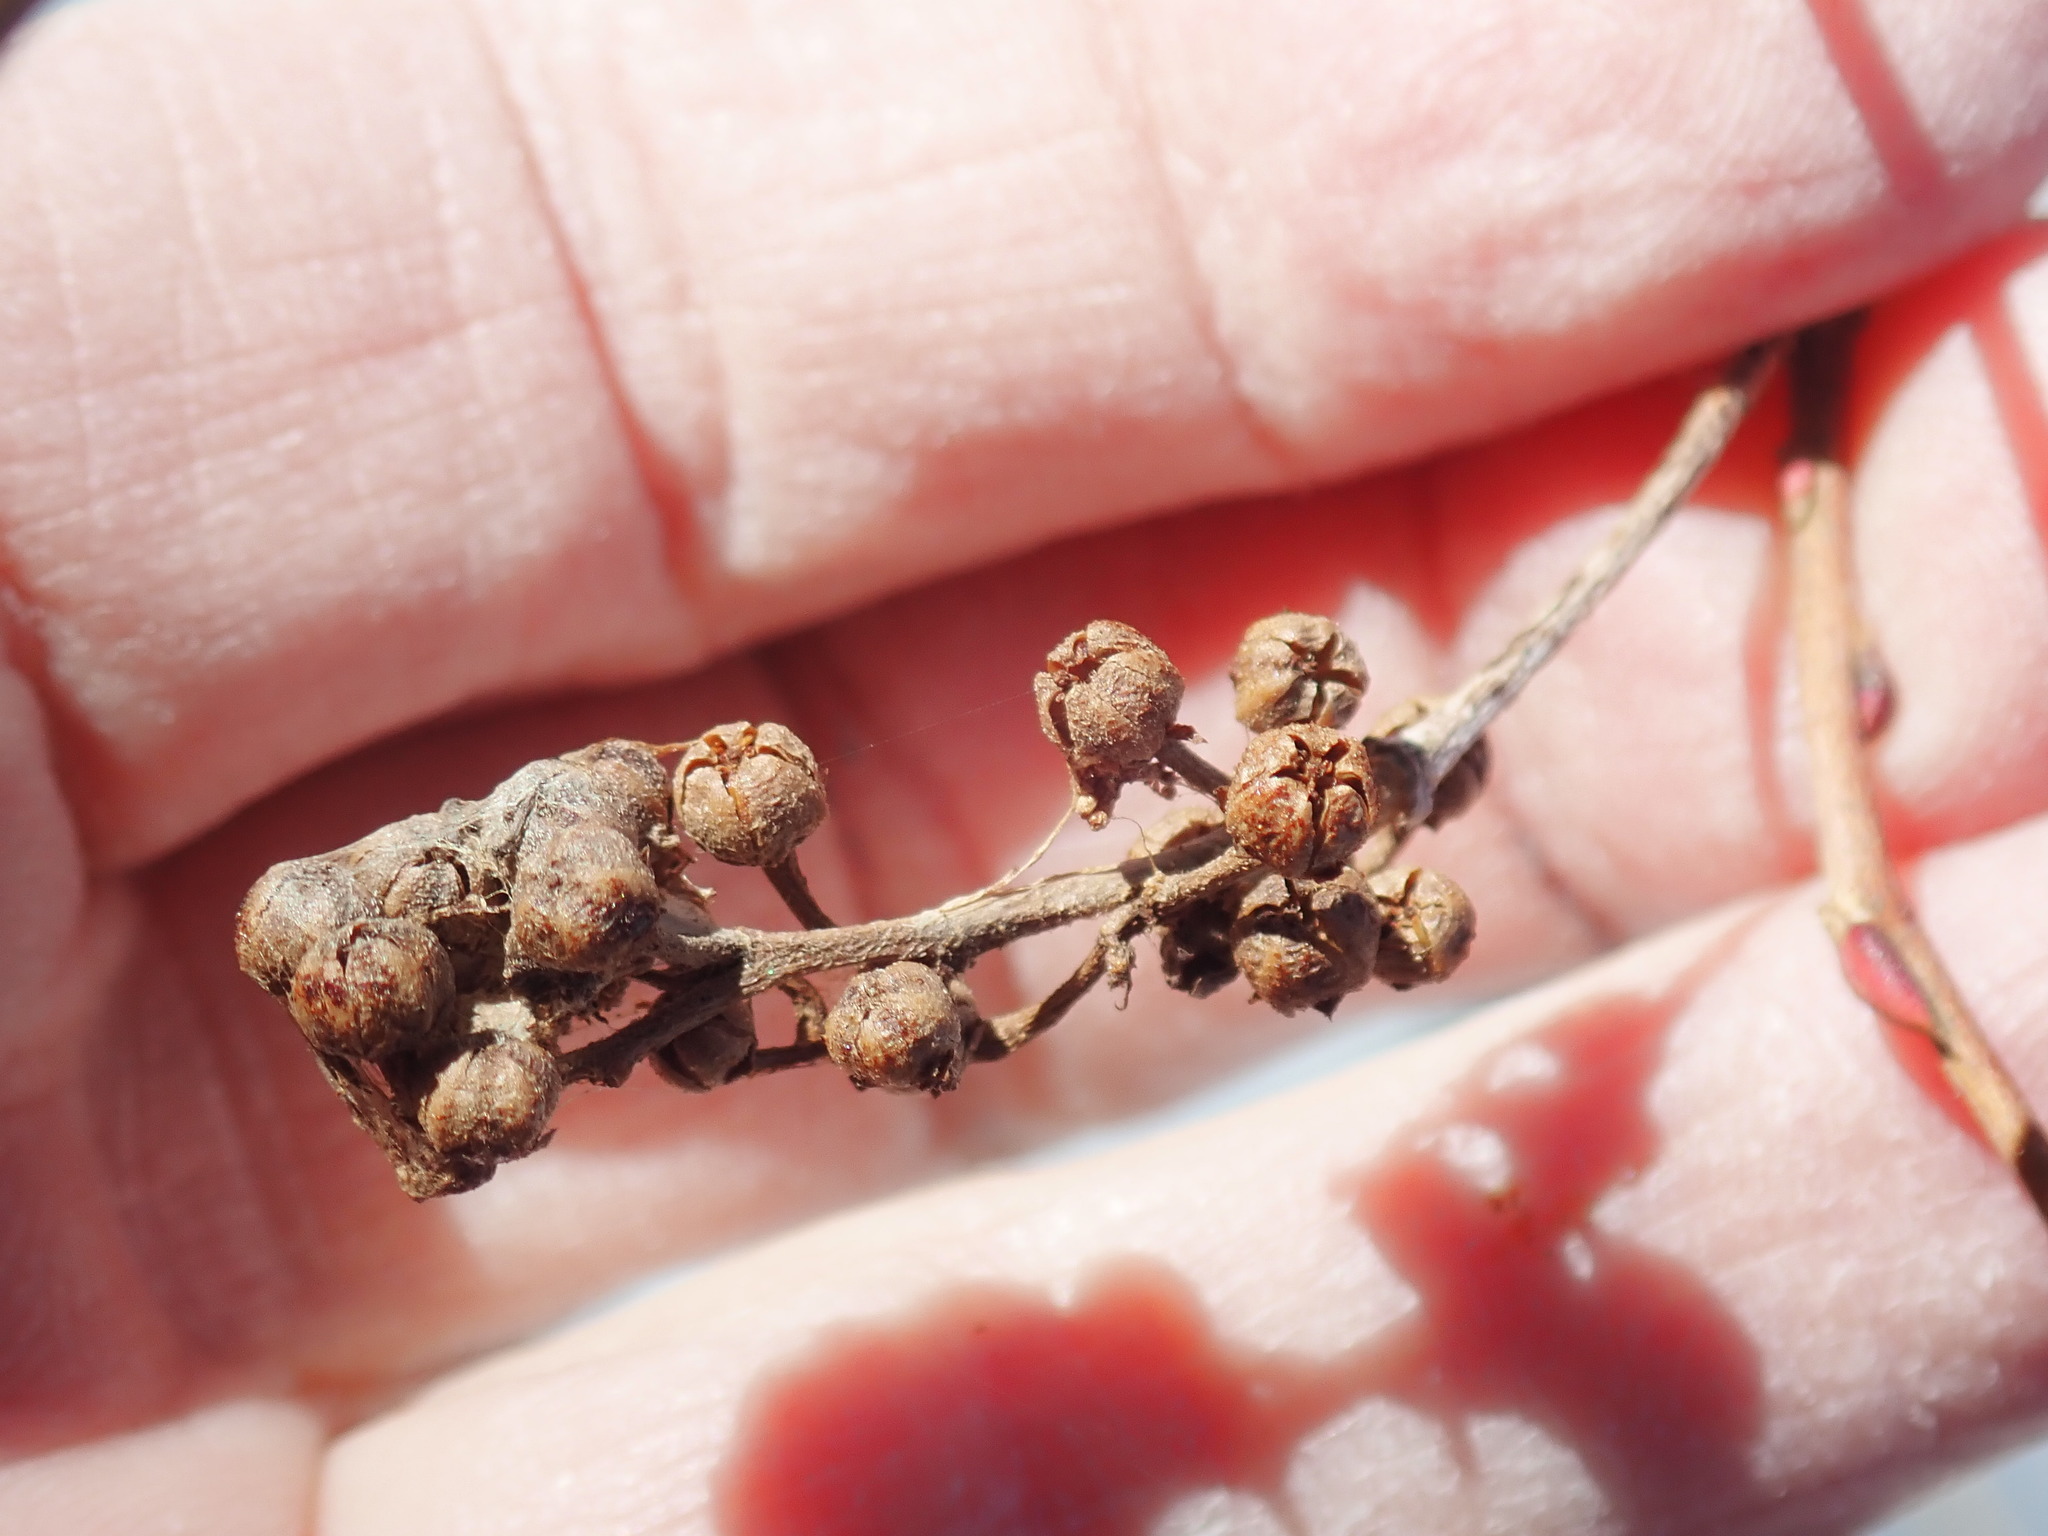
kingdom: Plantae
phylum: Tracheophyta
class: Magnoliopsida
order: Ericales
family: Ericaceae
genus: Lyonia
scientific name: Lyonia ligustrina
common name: Maleberry
